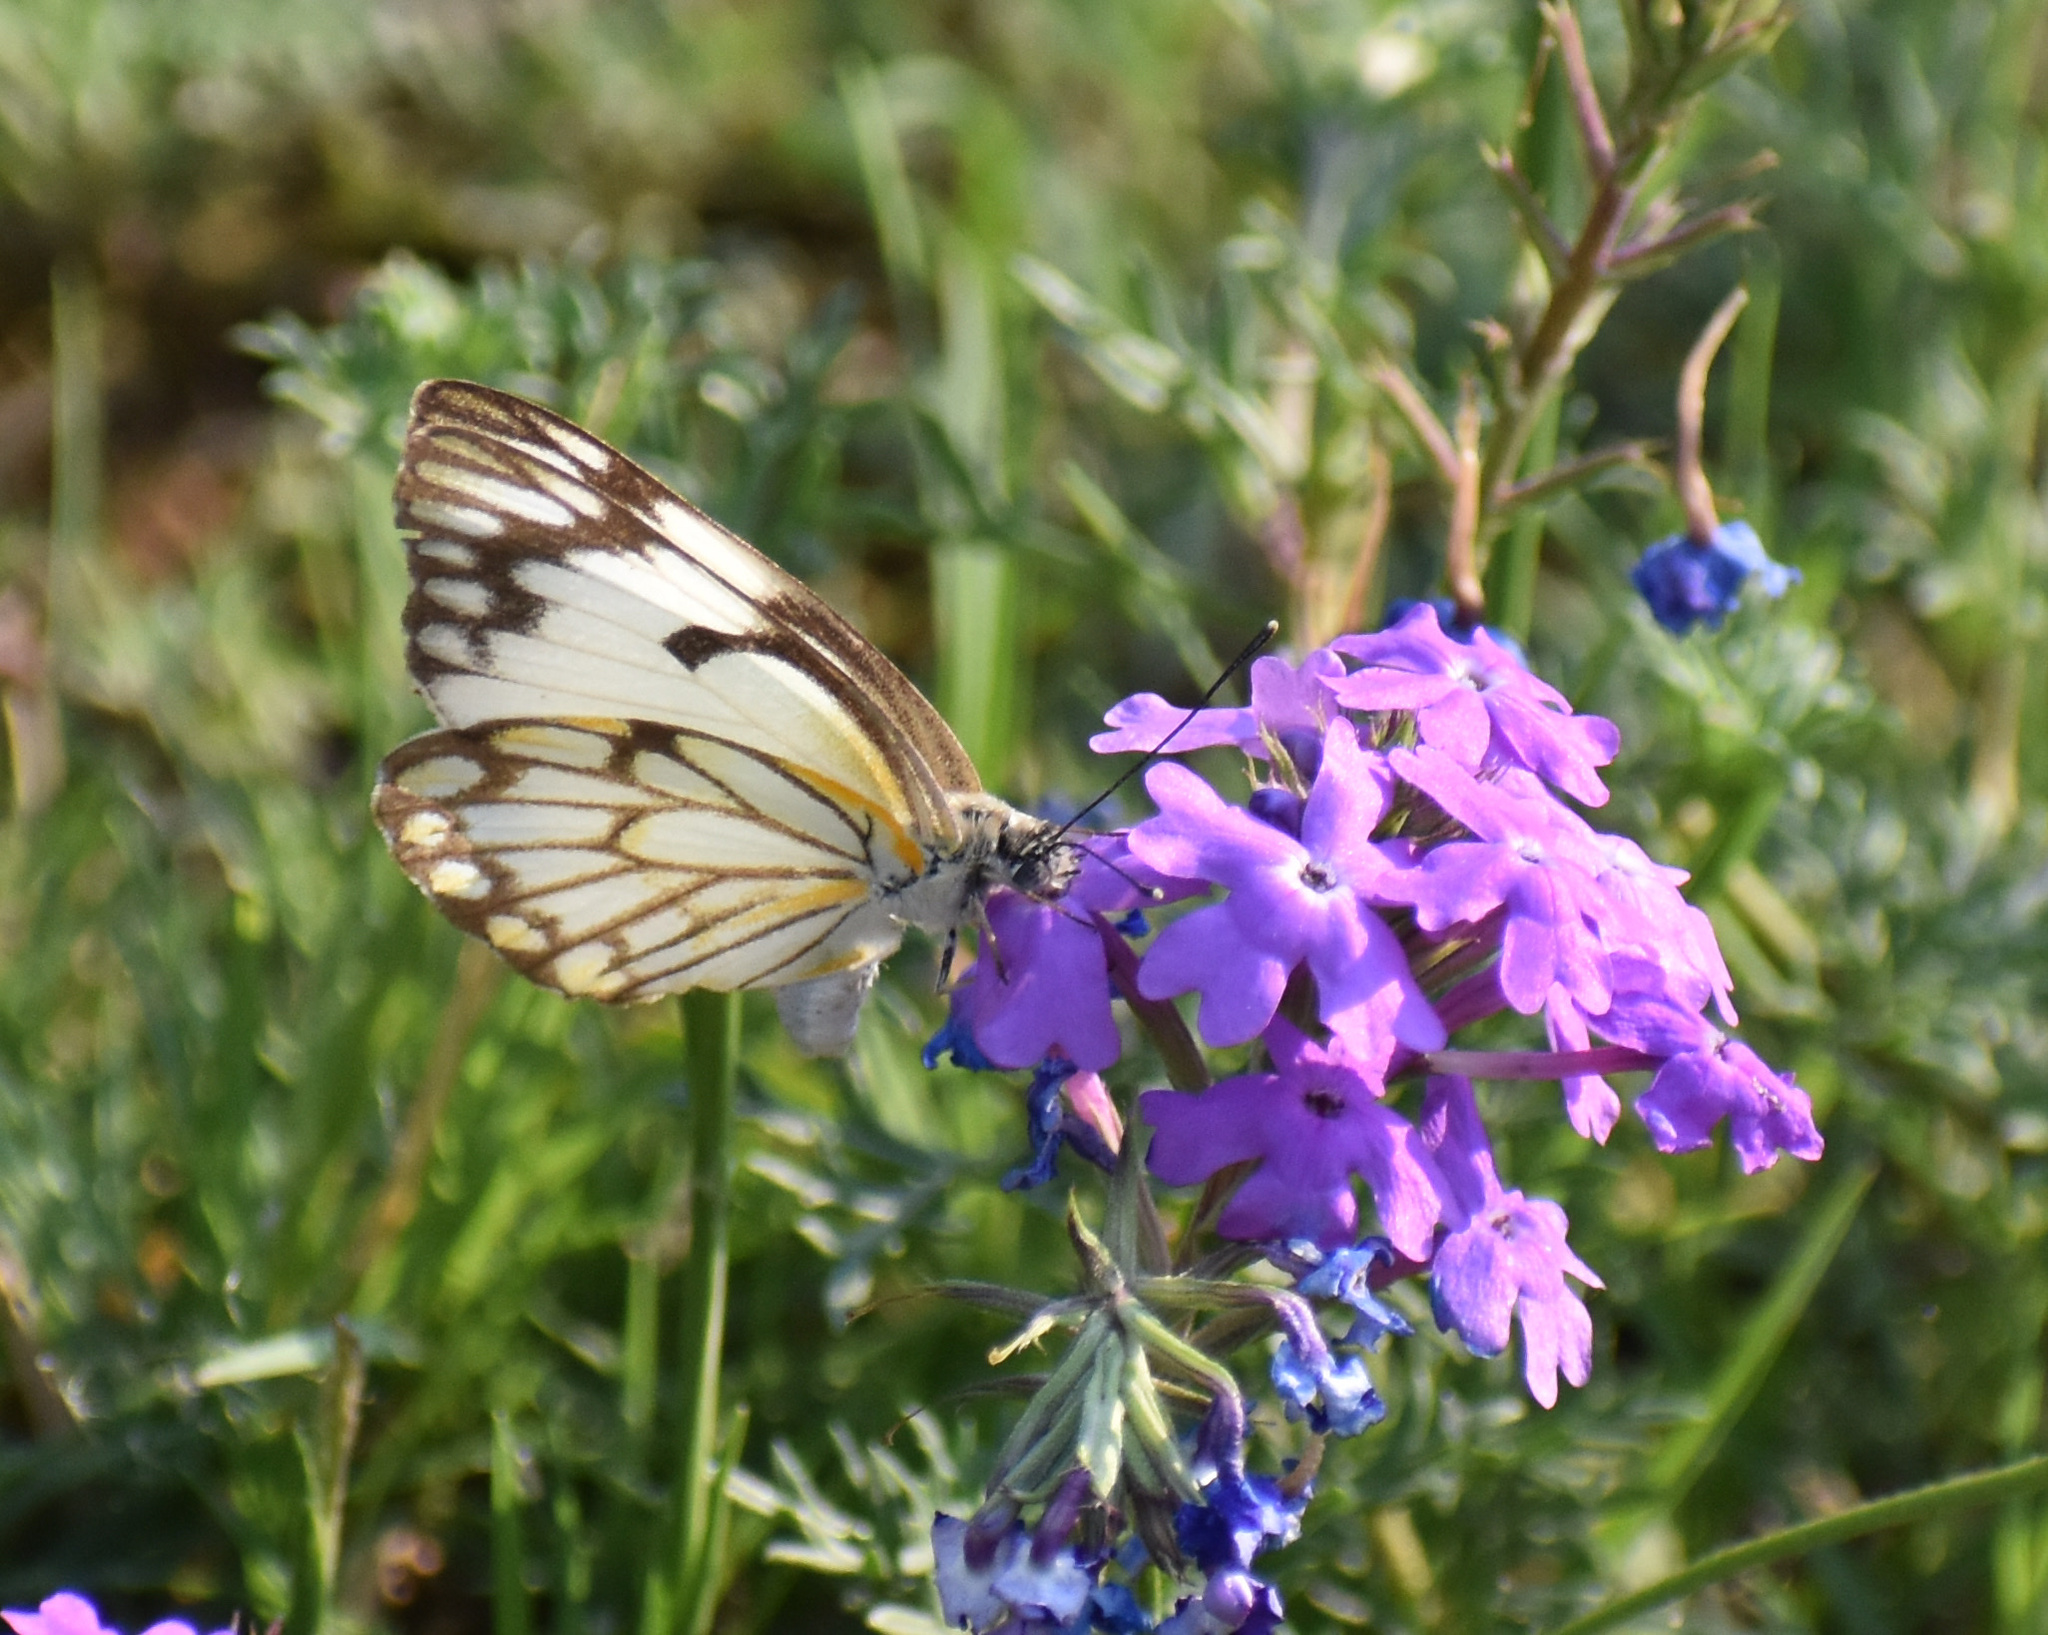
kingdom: Animalia
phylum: Arthropoda
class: Insecta
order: Lepidoptera
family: Pieridae
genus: Belenois
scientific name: Belenois aurota
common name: Brown-veined white
